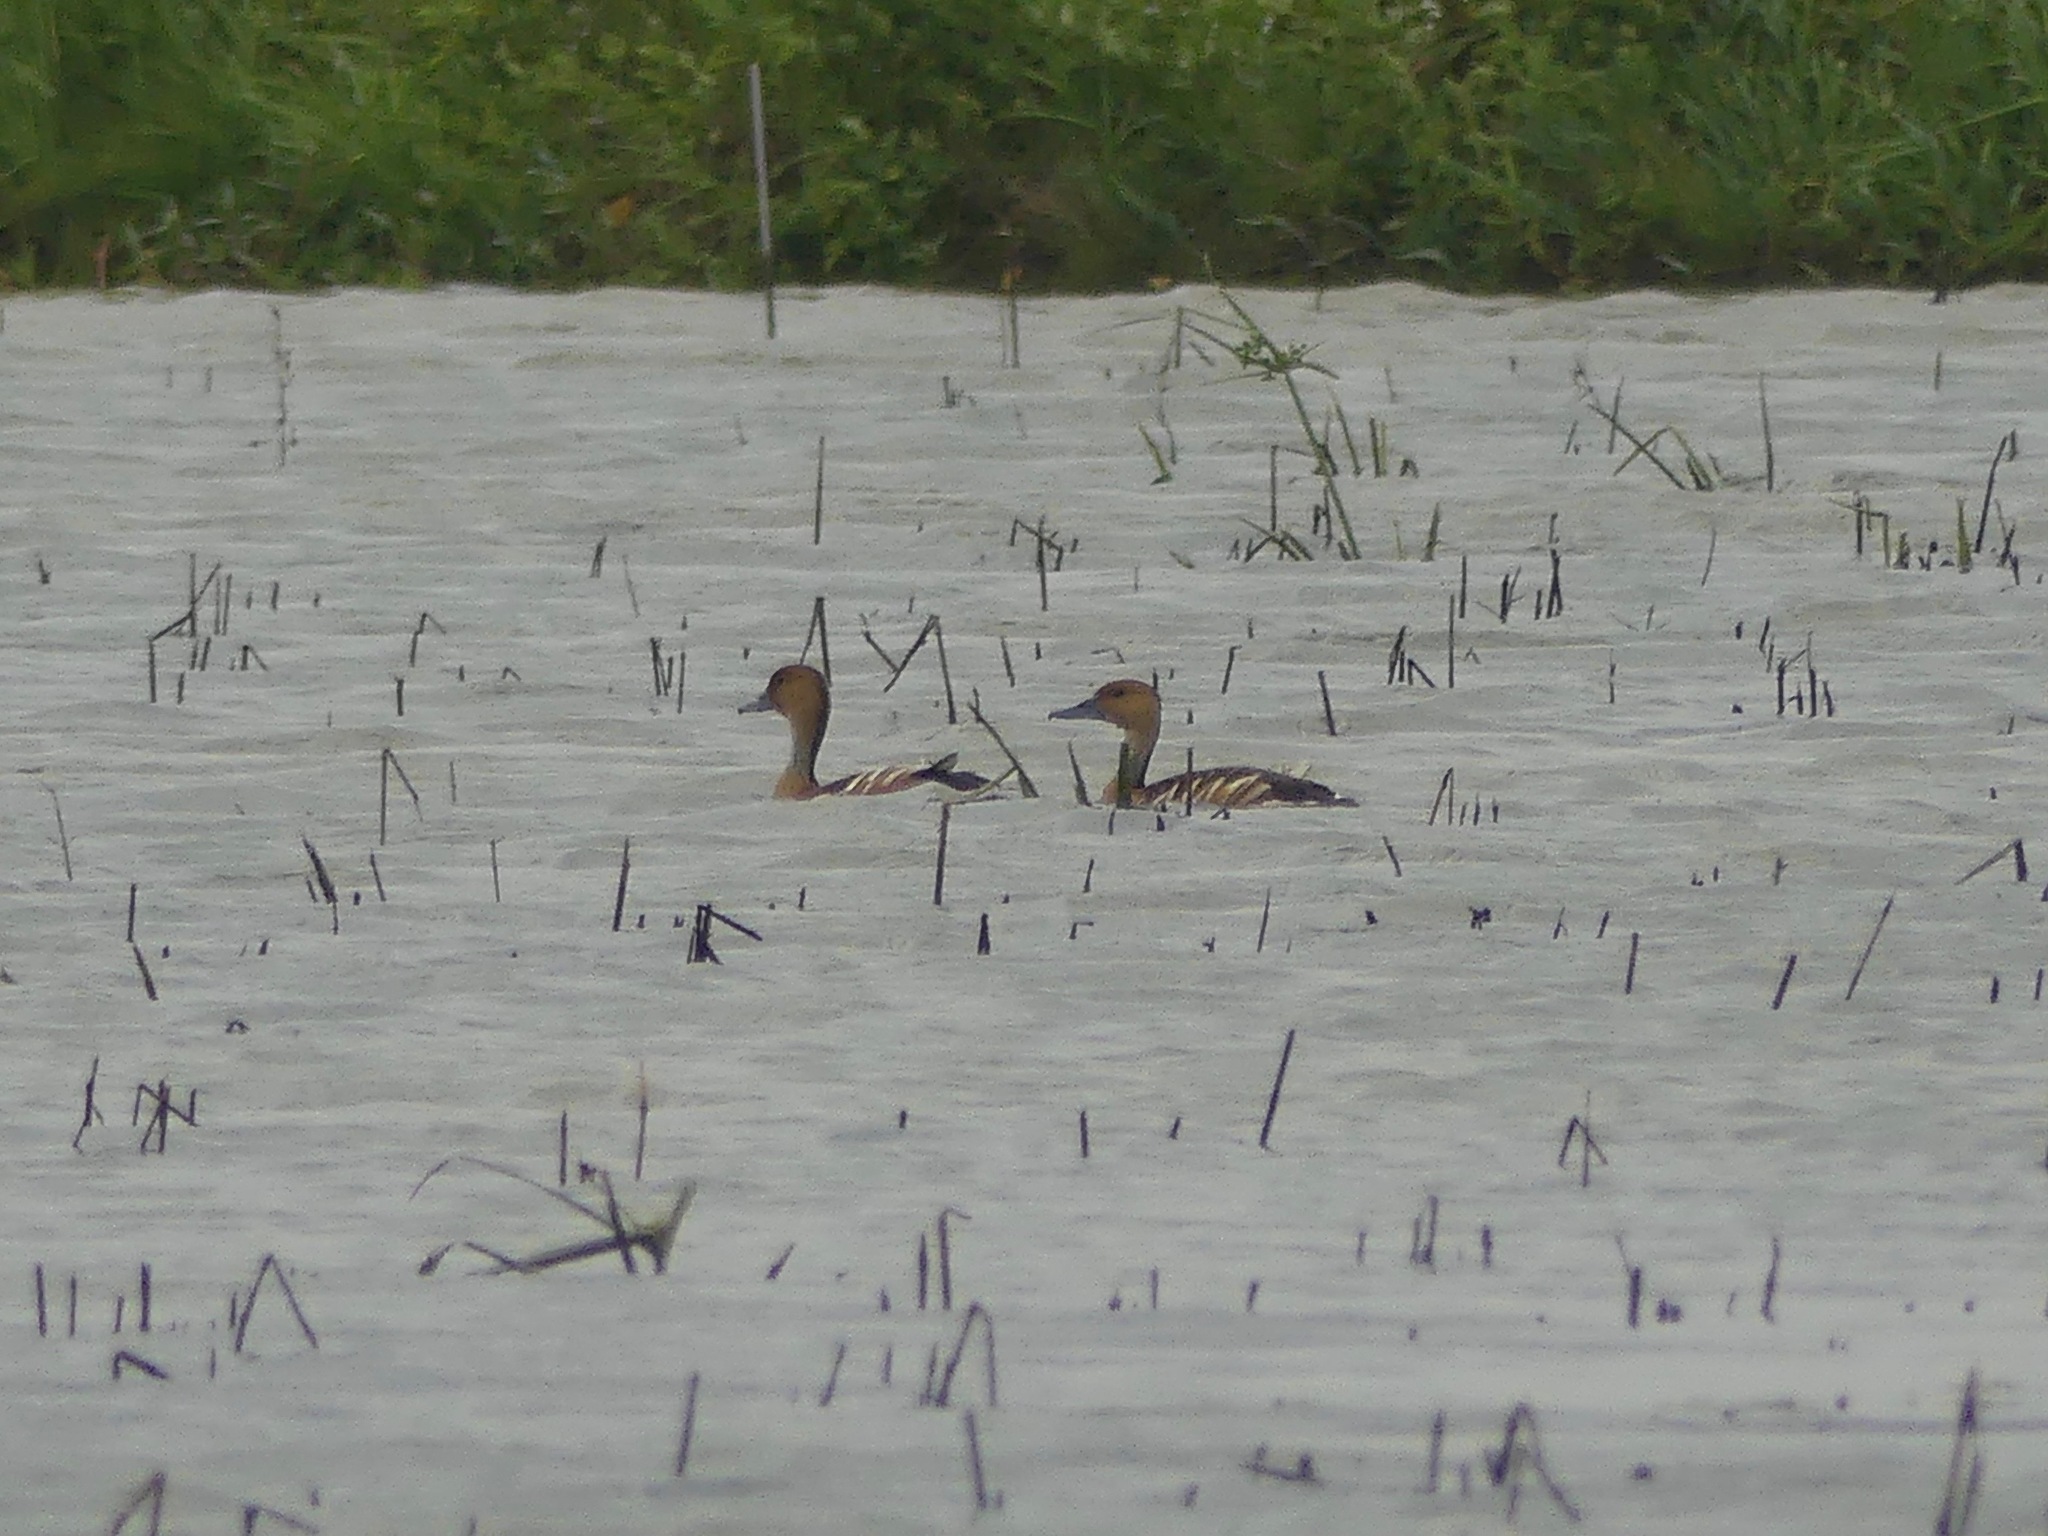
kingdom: Animalia
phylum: Chordata
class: Aves
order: Anseriformes
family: Anatidae
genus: Dendrocygna
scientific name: Dendrocygna bicolor
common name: Fulvous whistling duck
